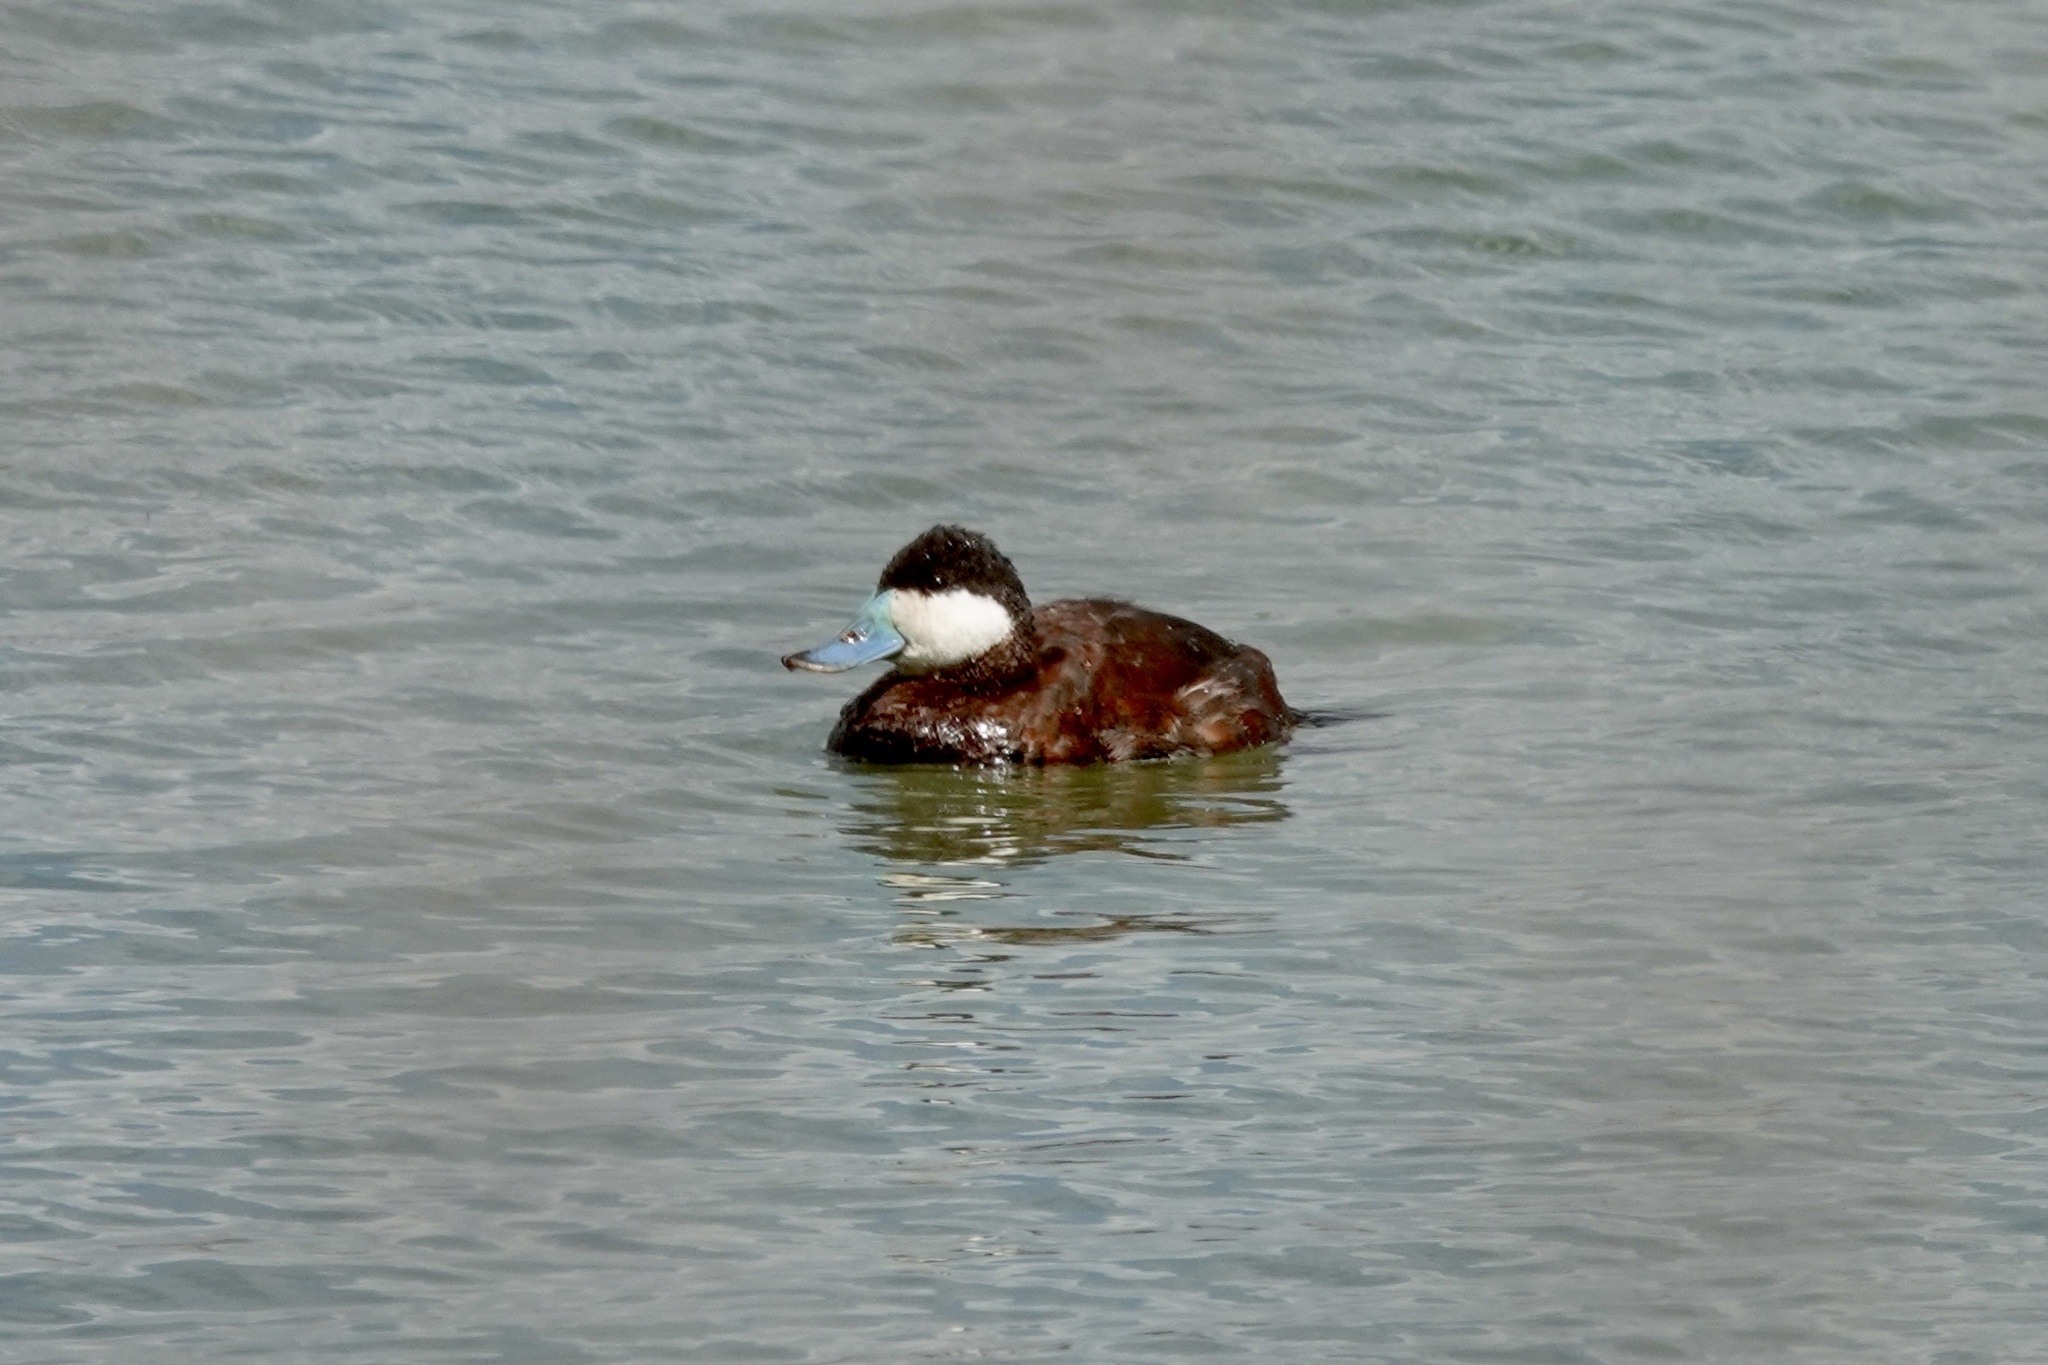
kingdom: Animalia
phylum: Chordata
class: Aves
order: Anseriformes
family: Anatidae
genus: Oxyura
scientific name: Oxyura jamaicensis
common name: Ruddy duck
